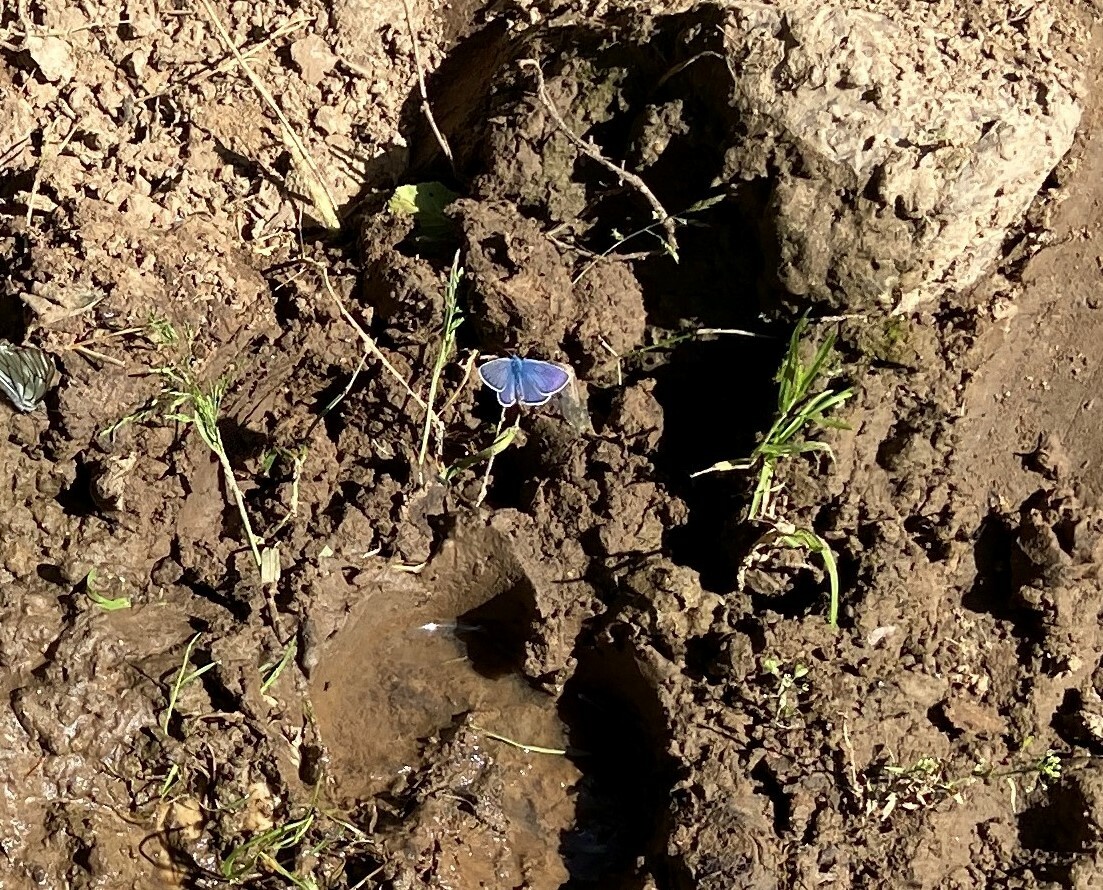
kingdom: Animalia
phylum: Arthropoda
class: Insecta
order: Lepidoptera
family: Lycaenidae
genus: Cyaniris
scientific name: Cyaniris semiargus
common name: Mazarine blue
